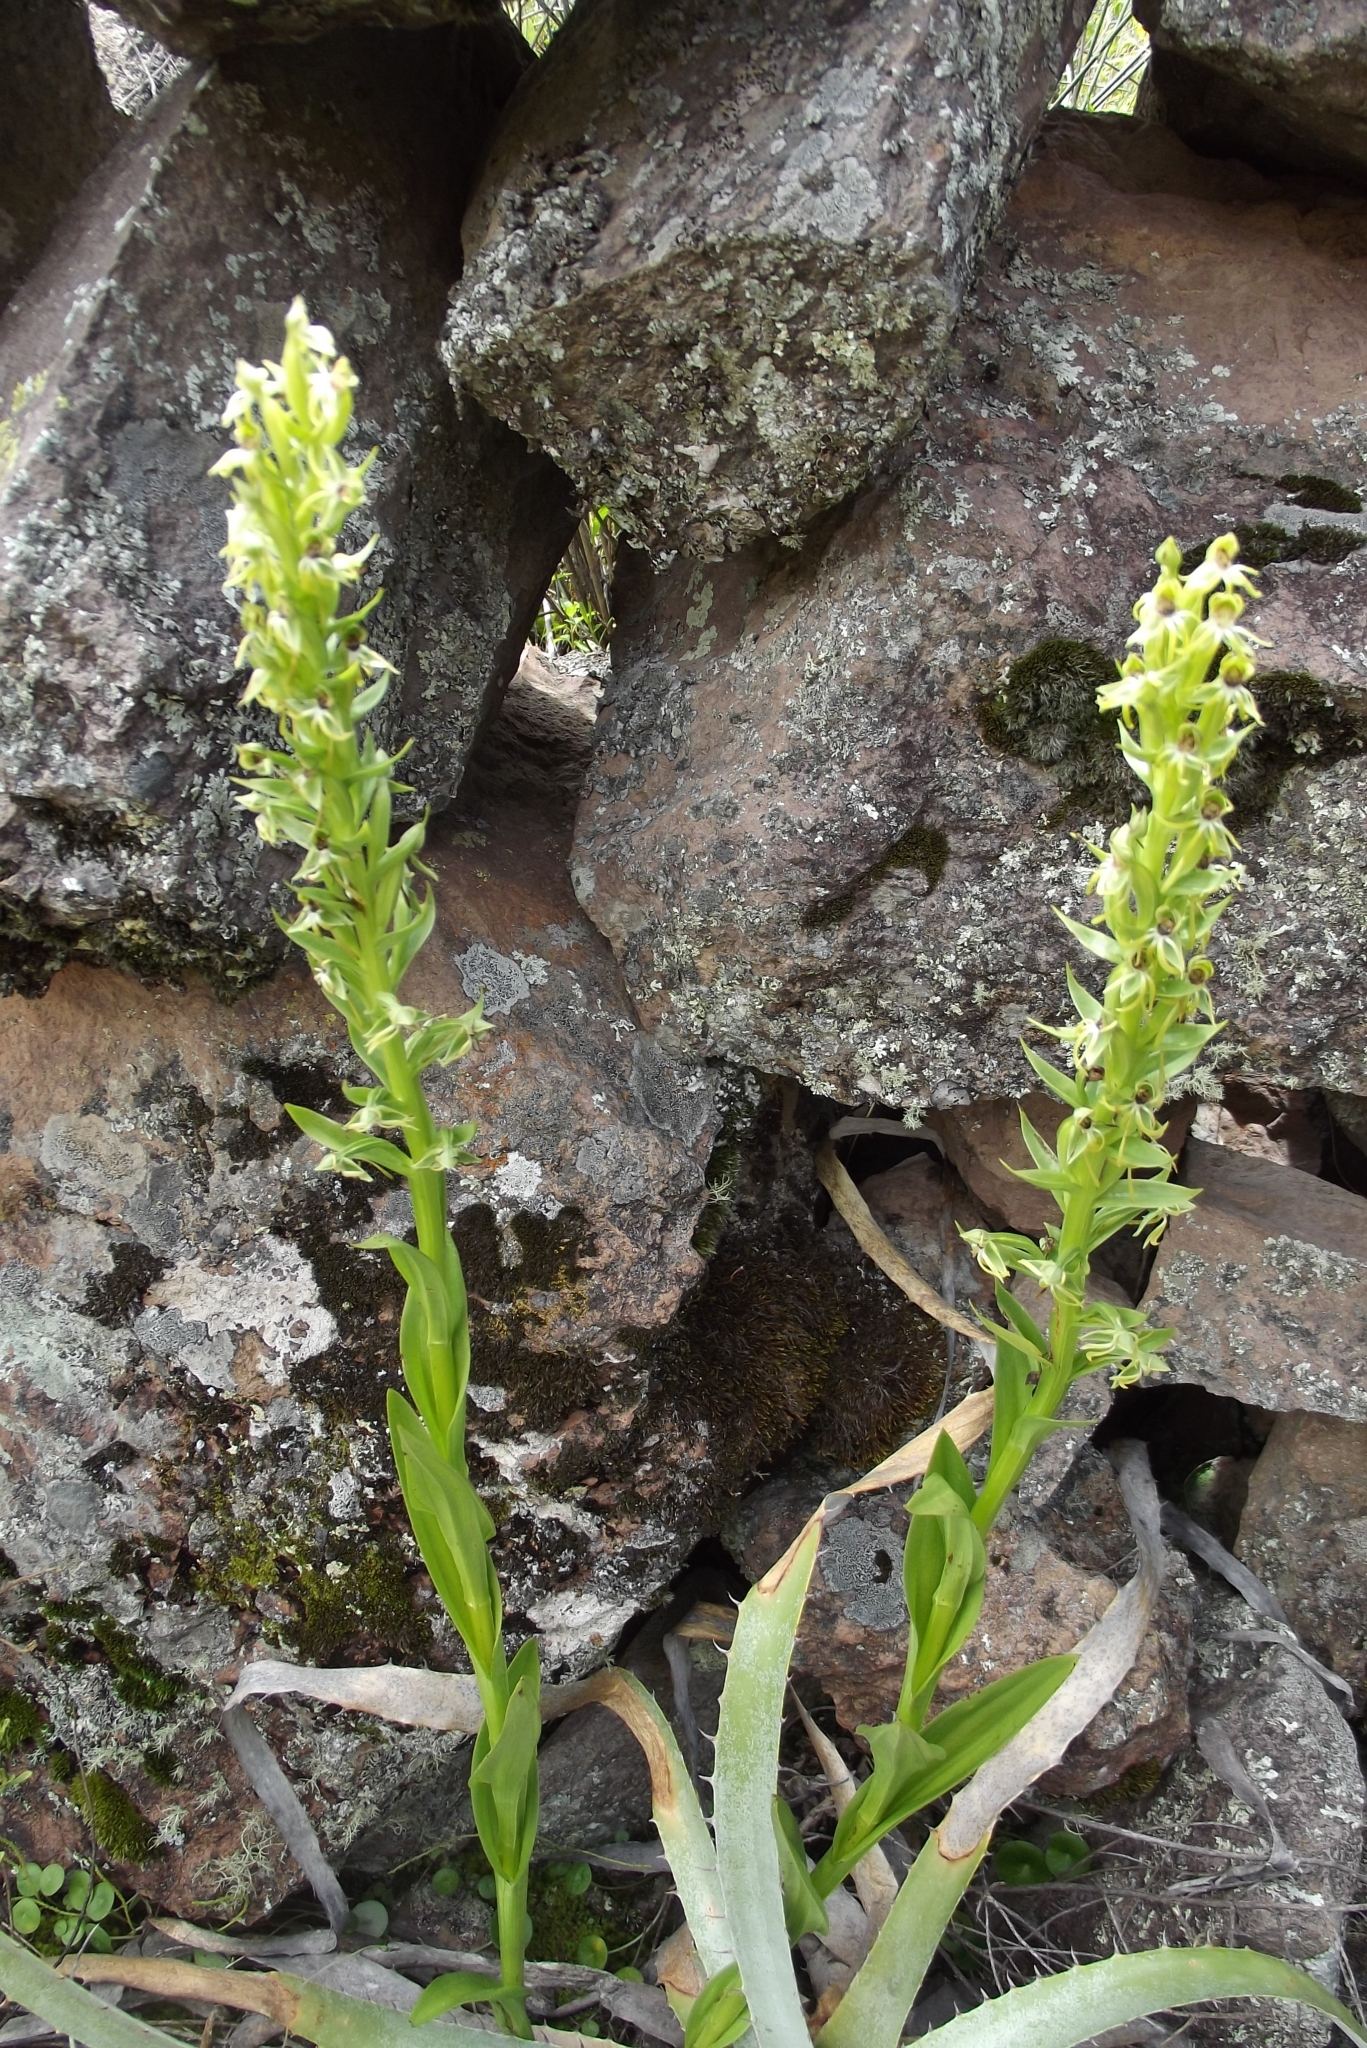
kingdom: Plantae
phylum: Tracheophyta
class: Liliopsida
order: Asparagales
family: Orchidaceae
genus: Habenaria
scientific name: Habenaria repens
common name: Water orchid
